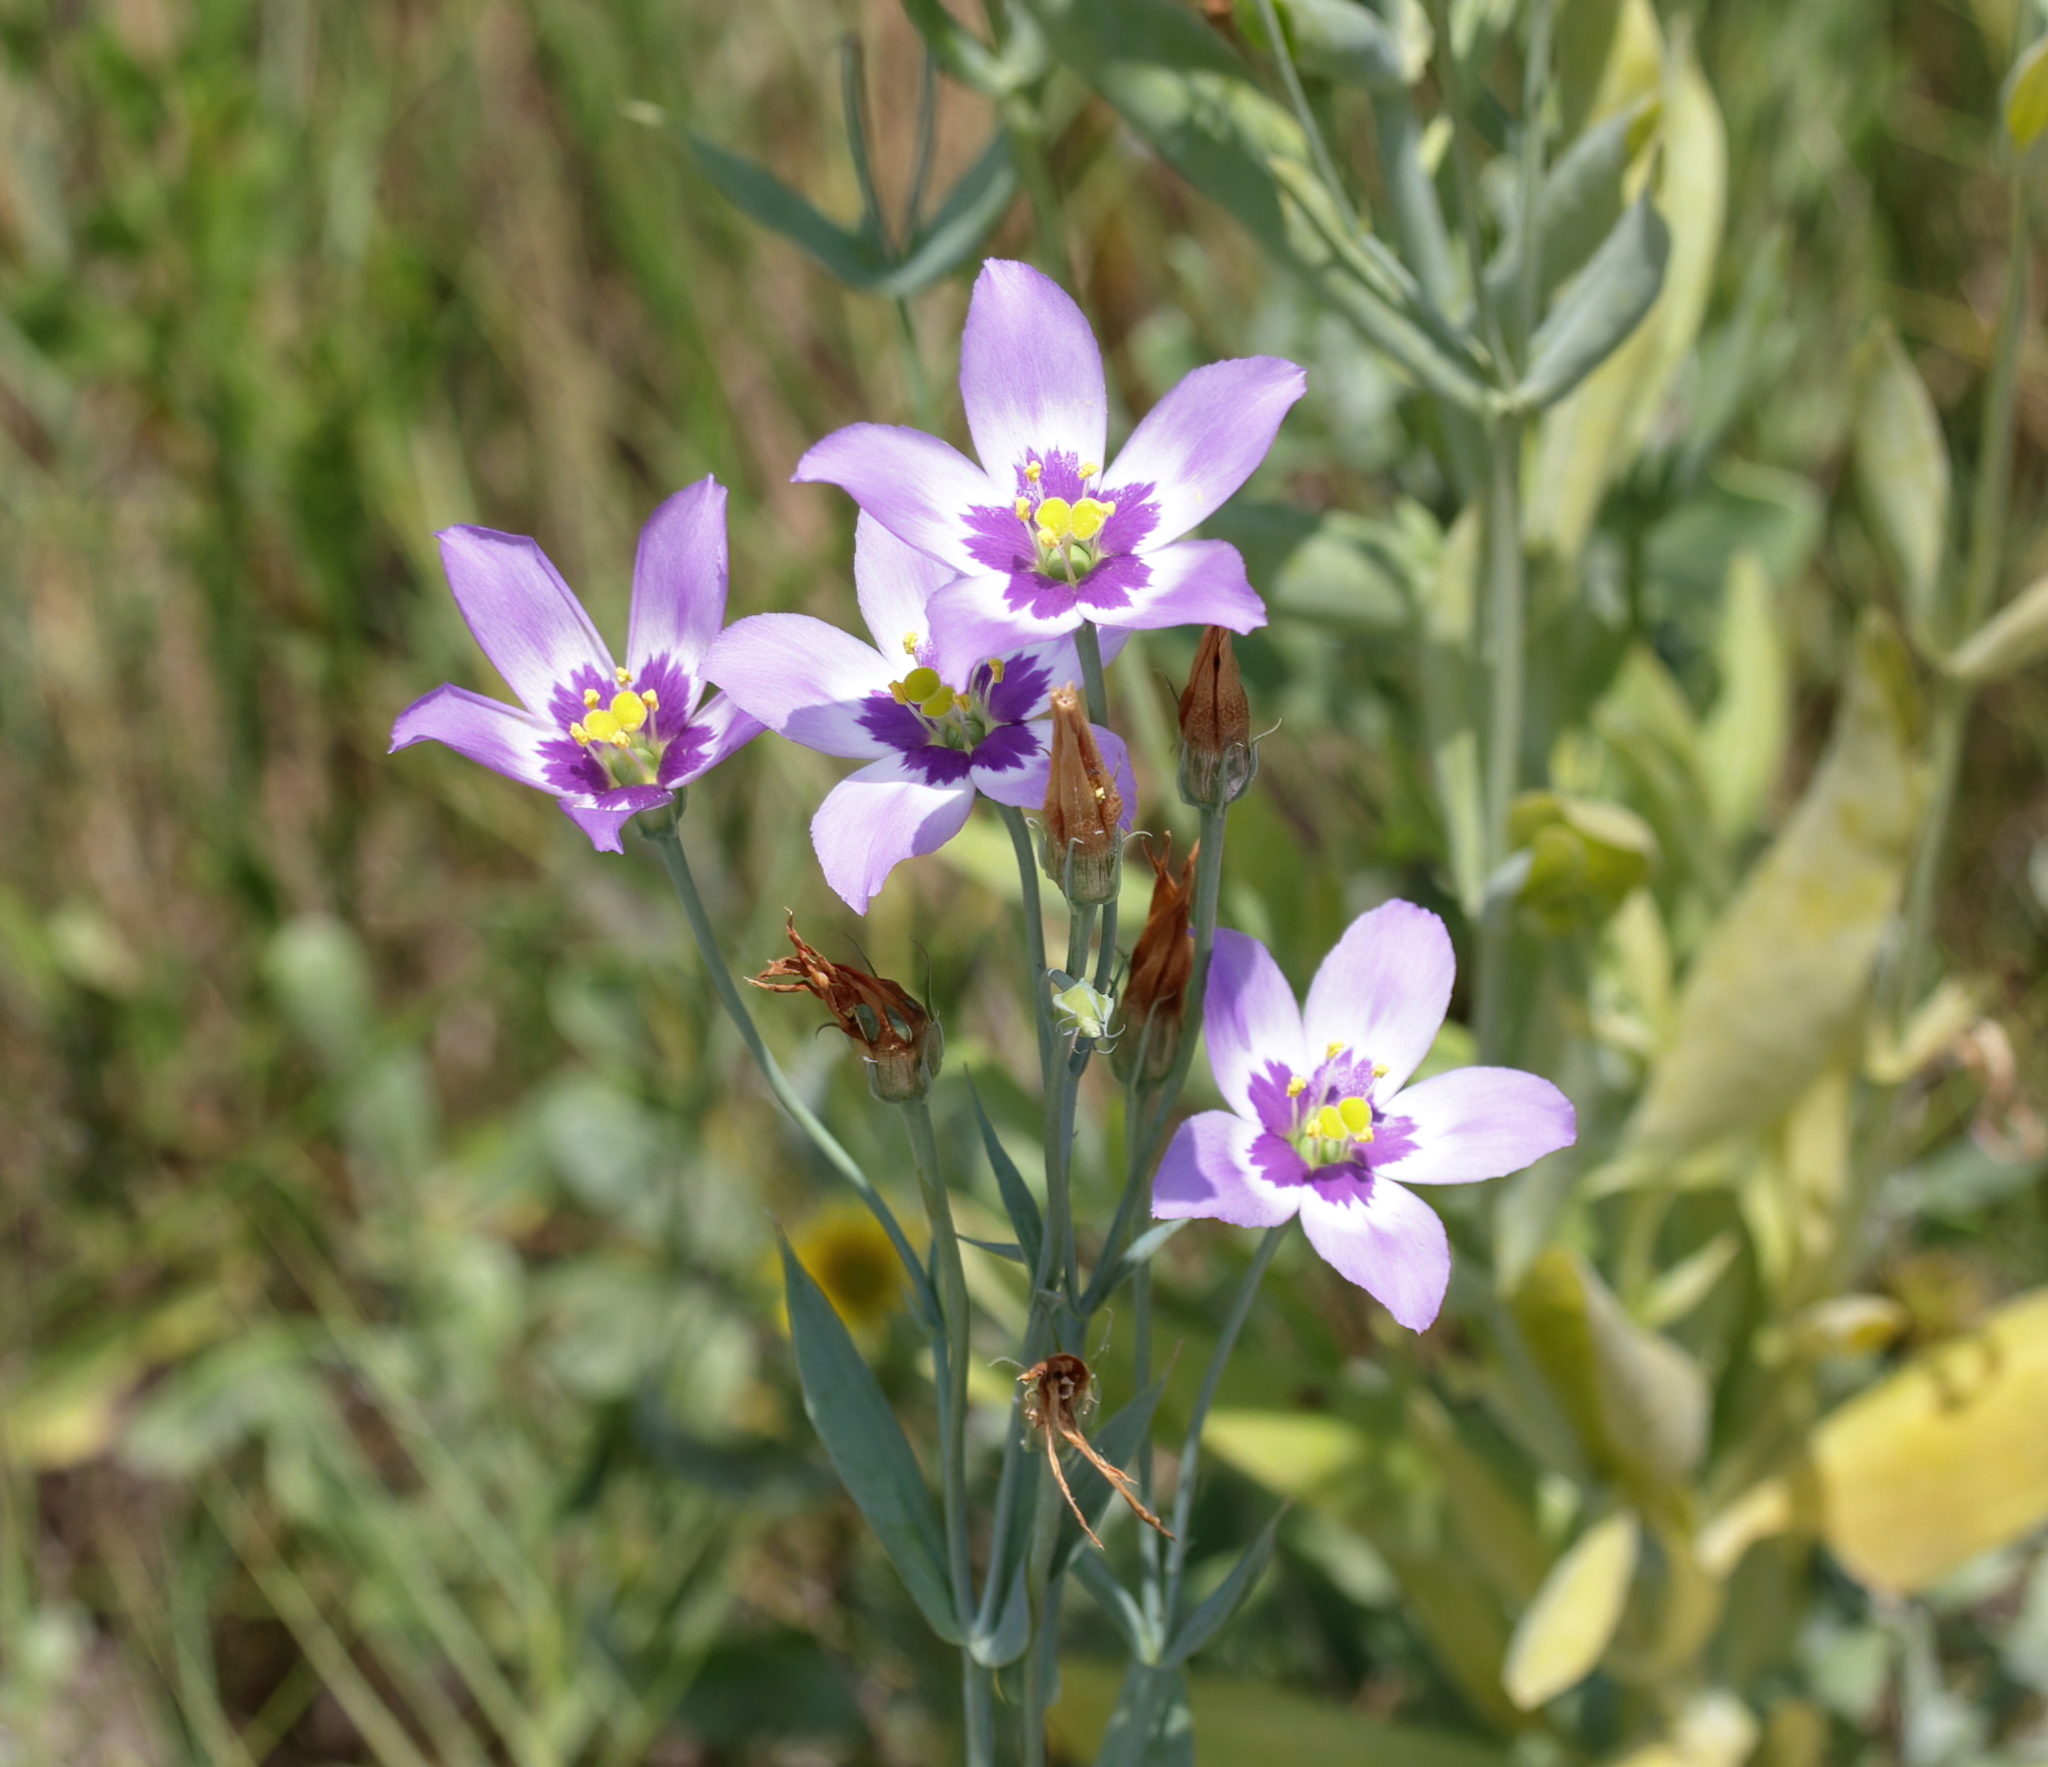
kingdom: Plantae
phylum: Tracheophyta
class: Magnoliopsida
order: Gentianales
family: Gentianaceae
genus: Eustoma
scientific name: Eustoma exaltatum
